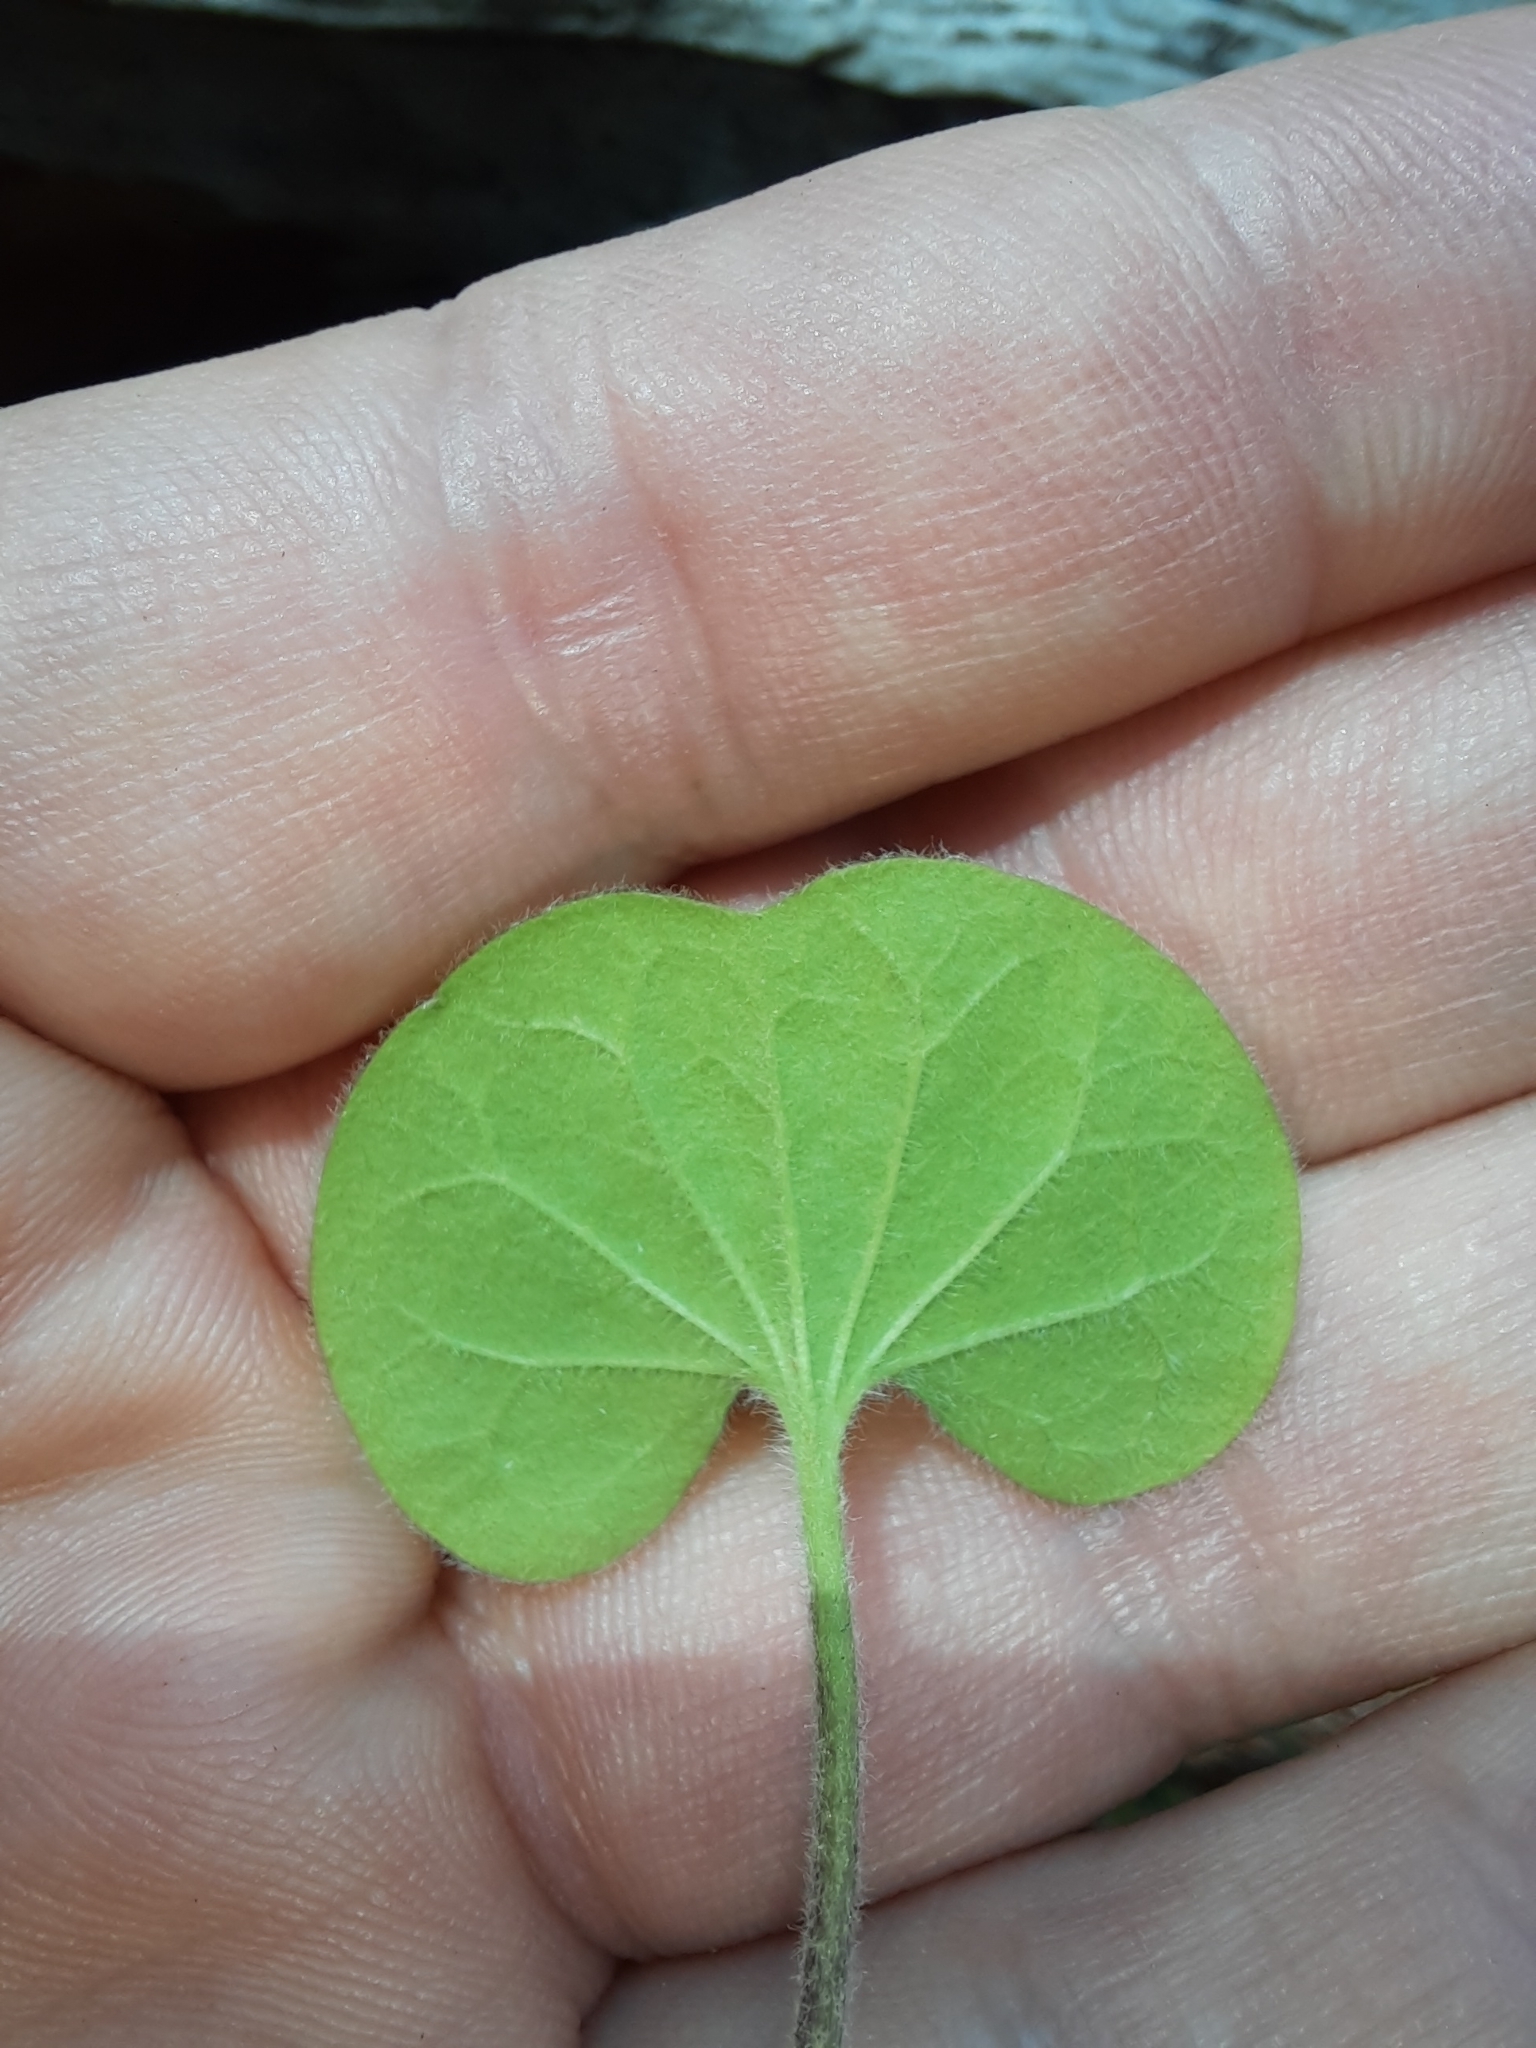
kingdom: Plantae
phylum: Tracheophyta
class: Magnoliopsida
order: Solanales
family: Convolvulaceae
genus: Dichondra
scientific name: Dichondra repens
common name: Kidneyweed
